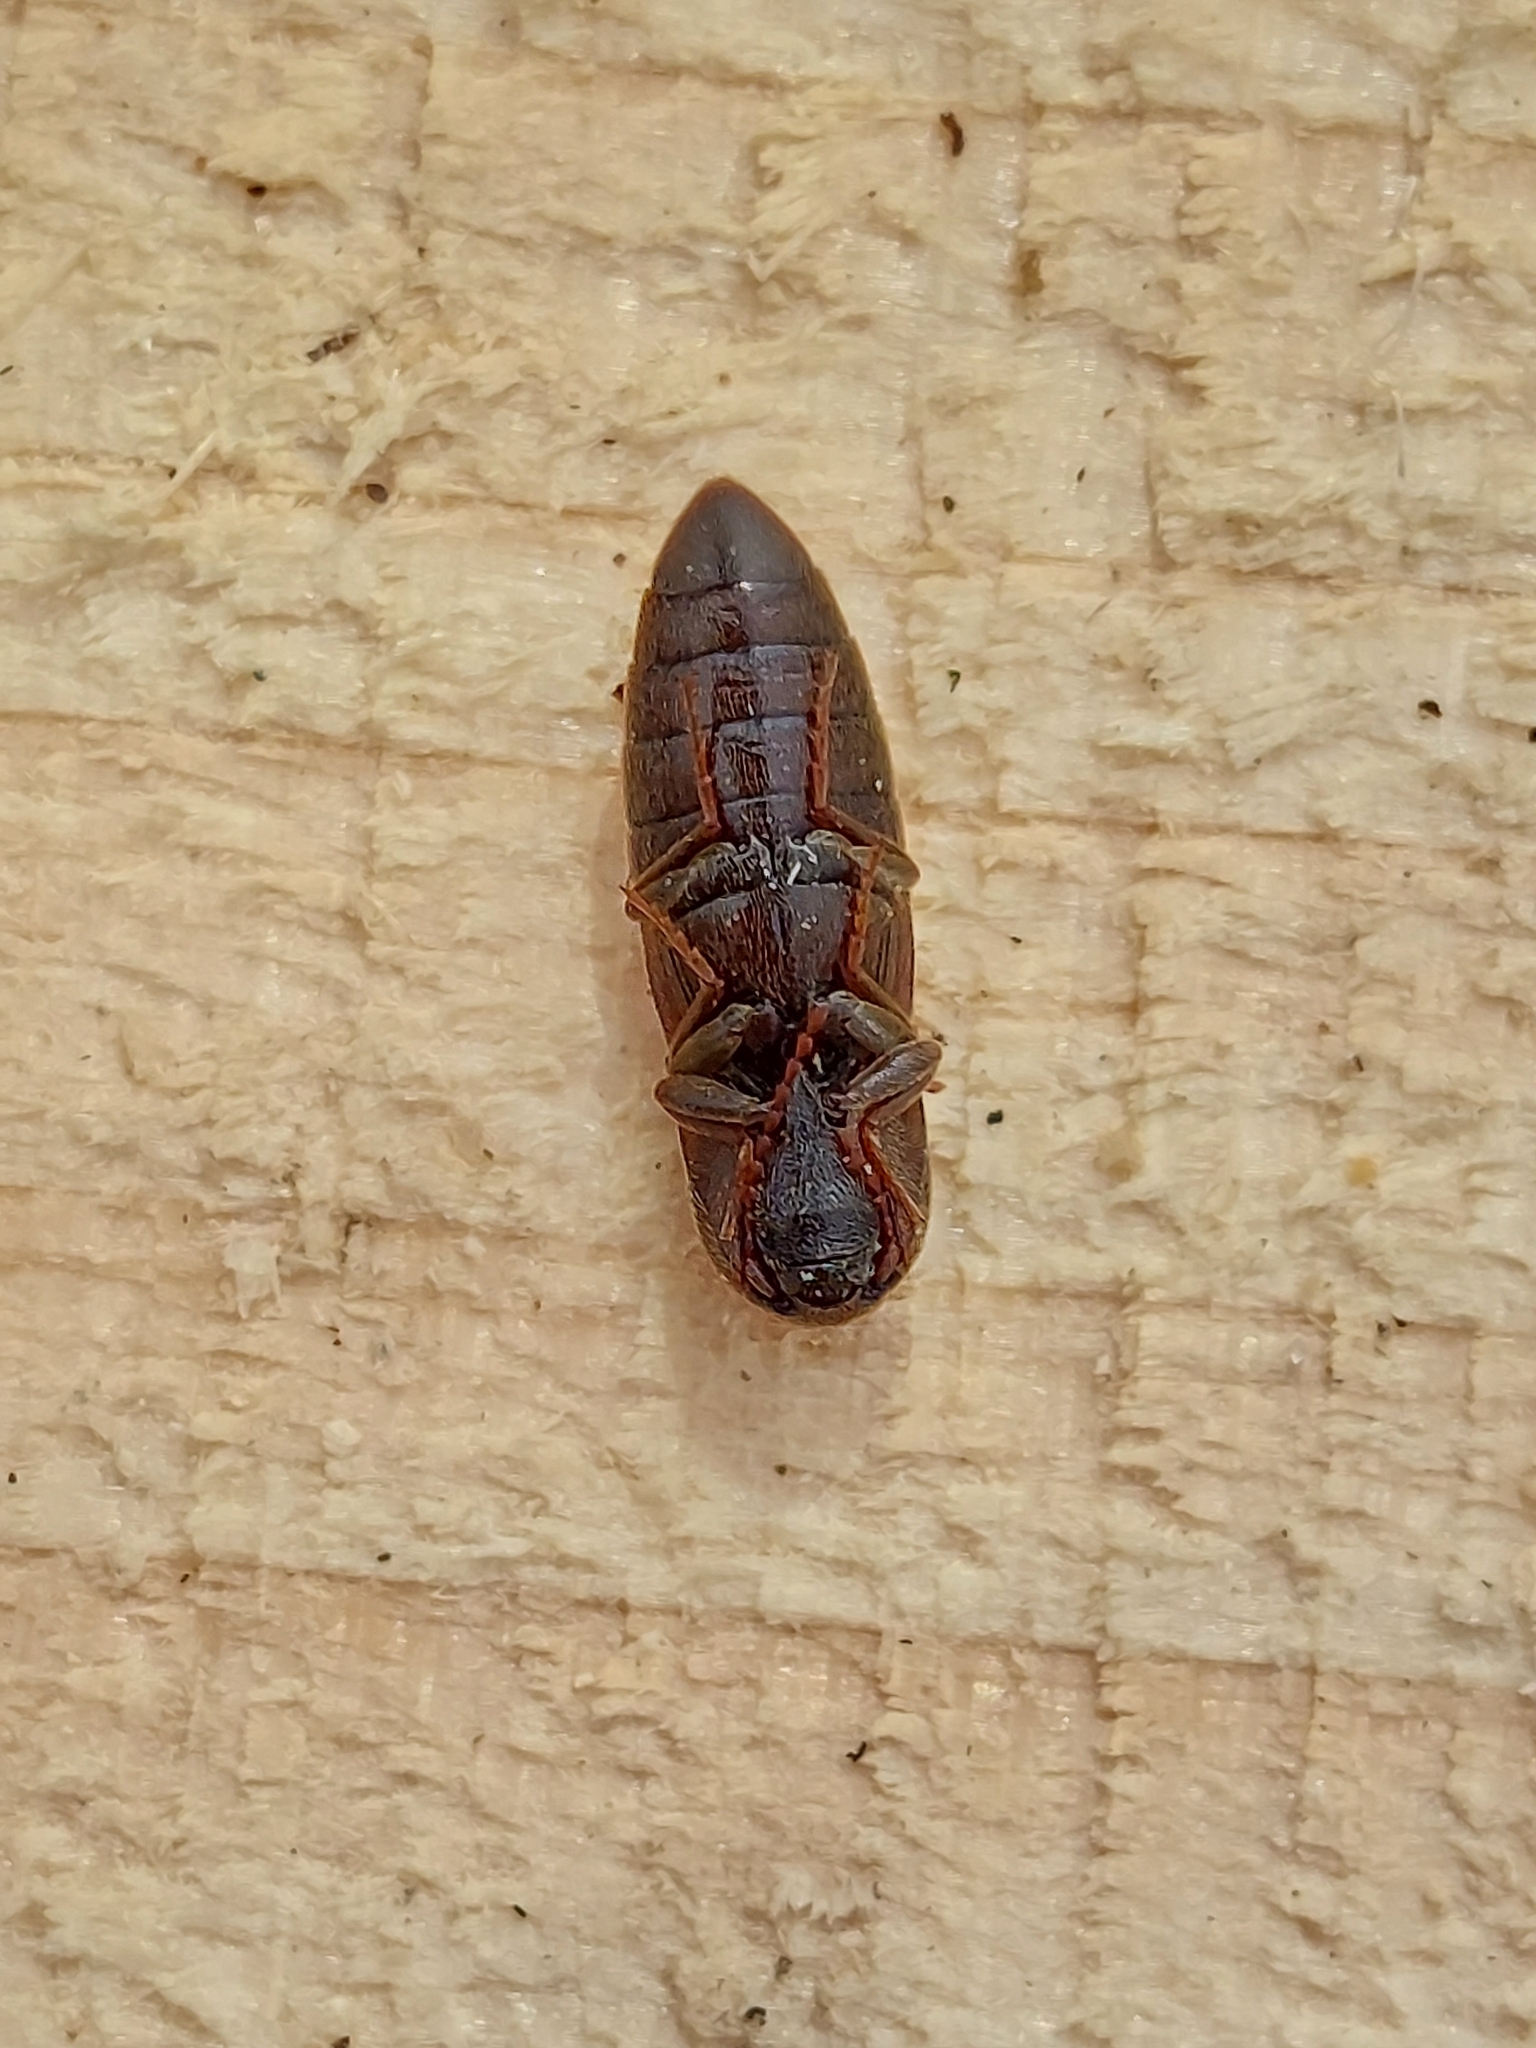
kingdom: Animalia
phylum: Arthropoda
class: Insecta
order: Coleoptera
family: Elateridae
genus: Agriotes
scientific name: Agriotes lineatus
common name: Lined click beetle
